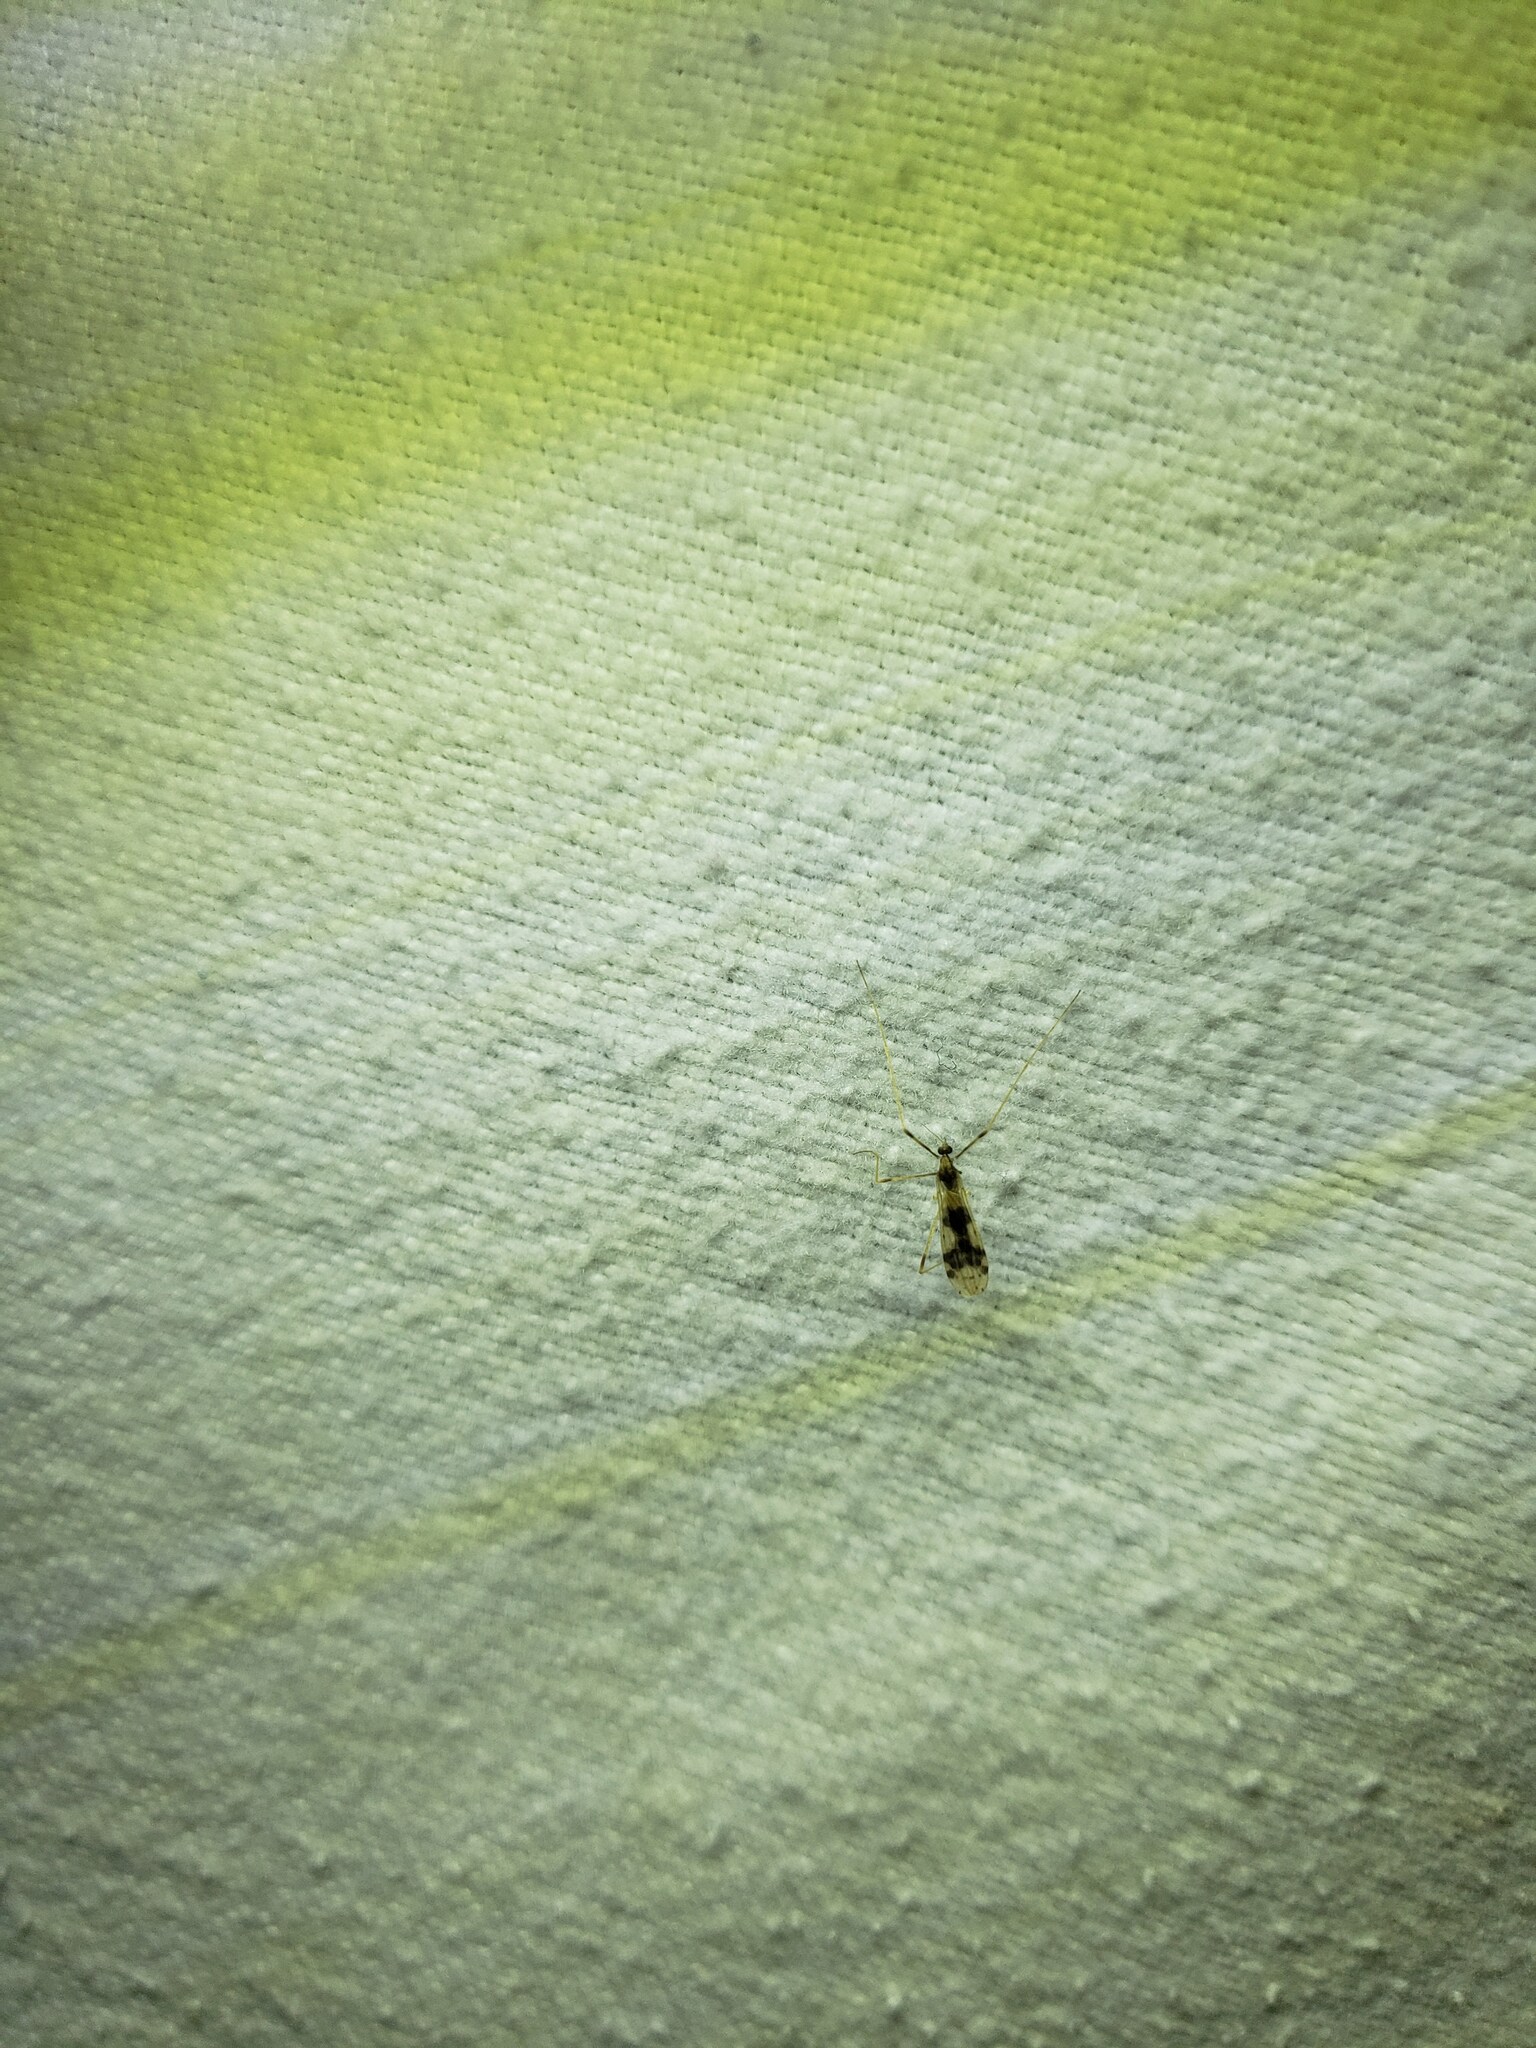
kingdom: Animalia
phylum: Arthropoda
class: Insecta
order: Diptera
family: Limoniidae
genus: Ilisia
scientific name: Ilisia venusta
